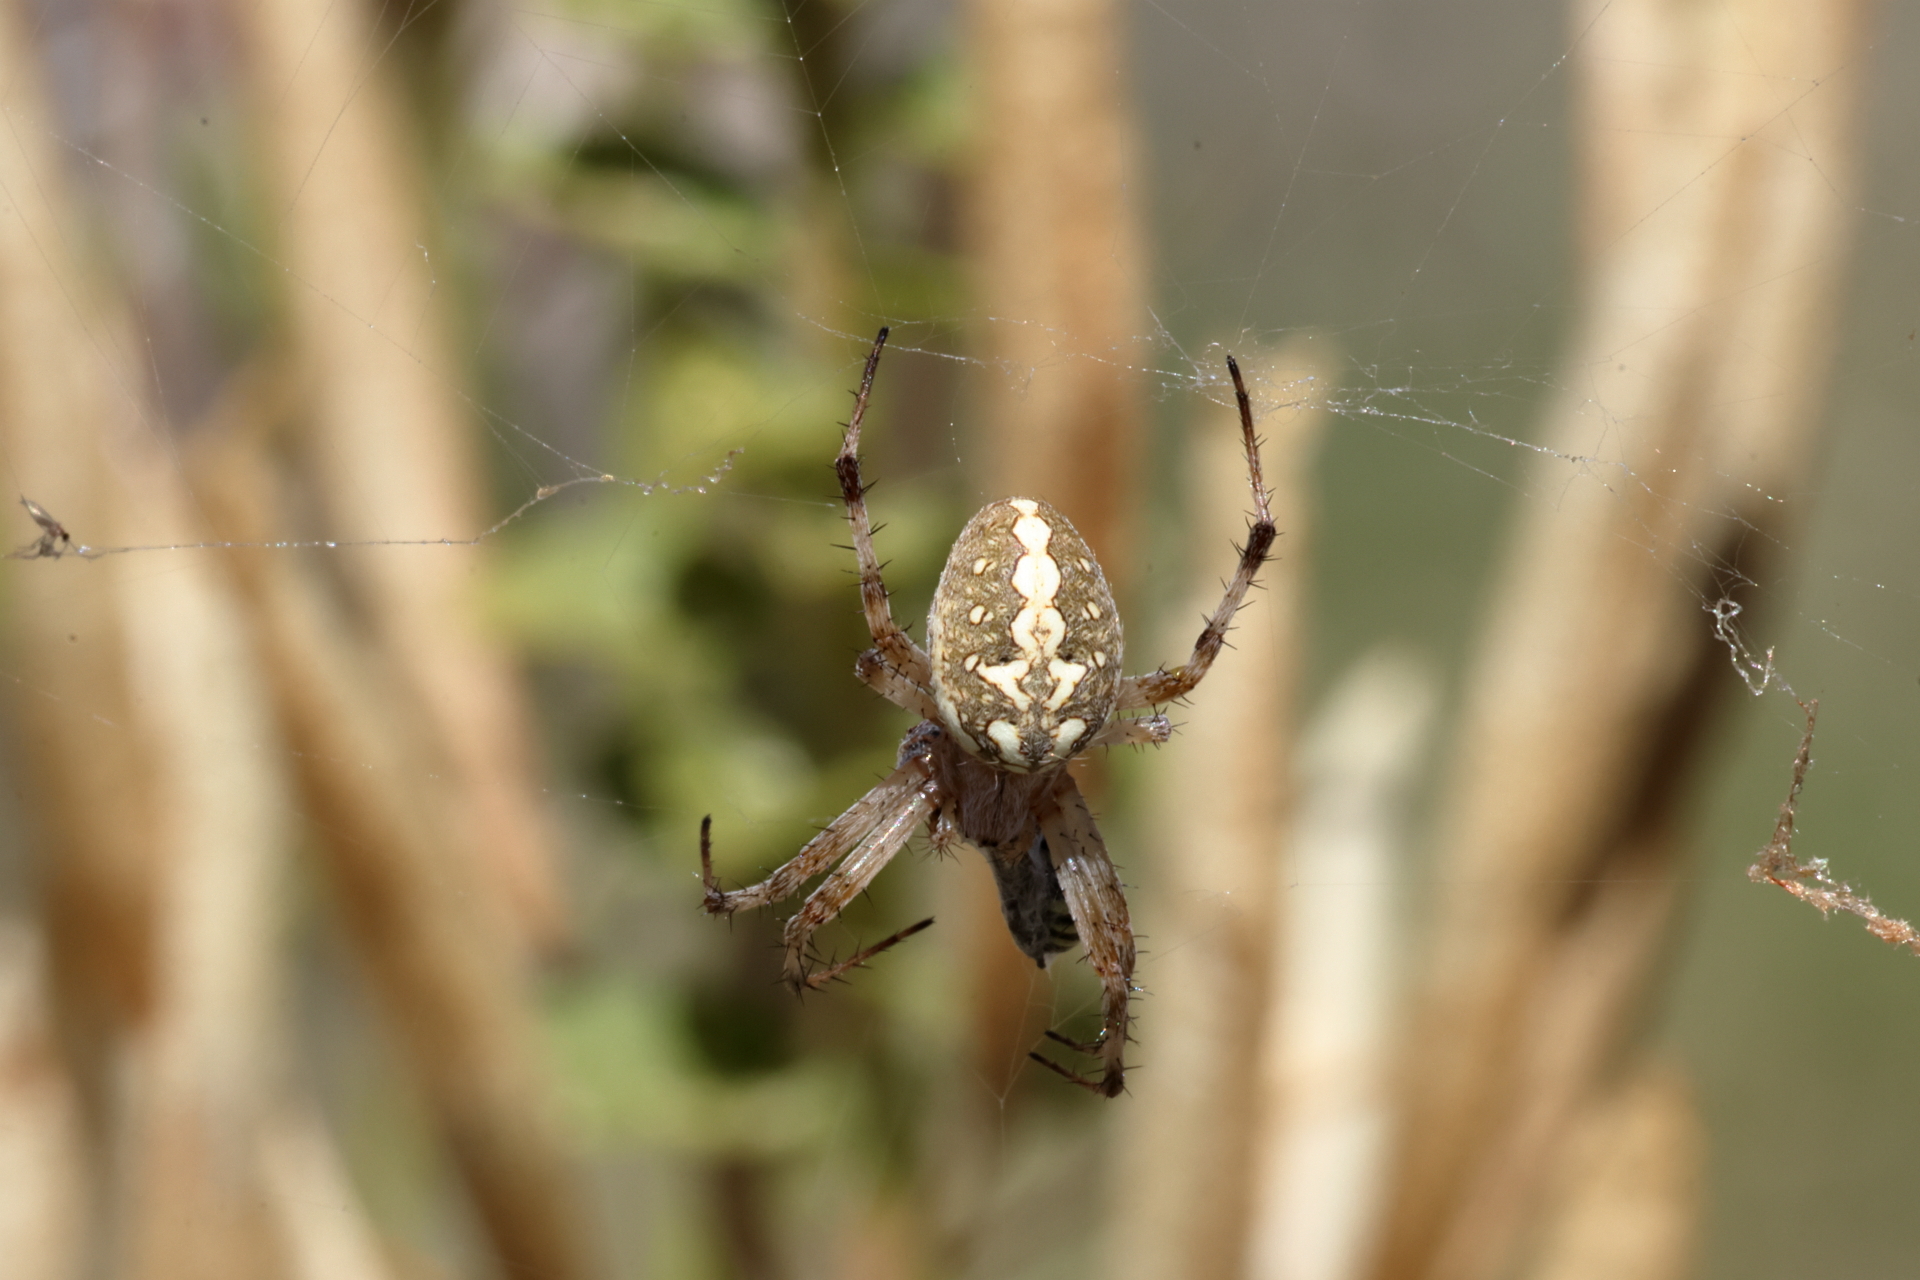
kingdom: Animalia
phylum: Arthropoda
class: Arachnida
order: Araneae
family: Araneidae
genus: Neoscona
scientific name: Neoscona oaxacensis
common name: Orb weavers
